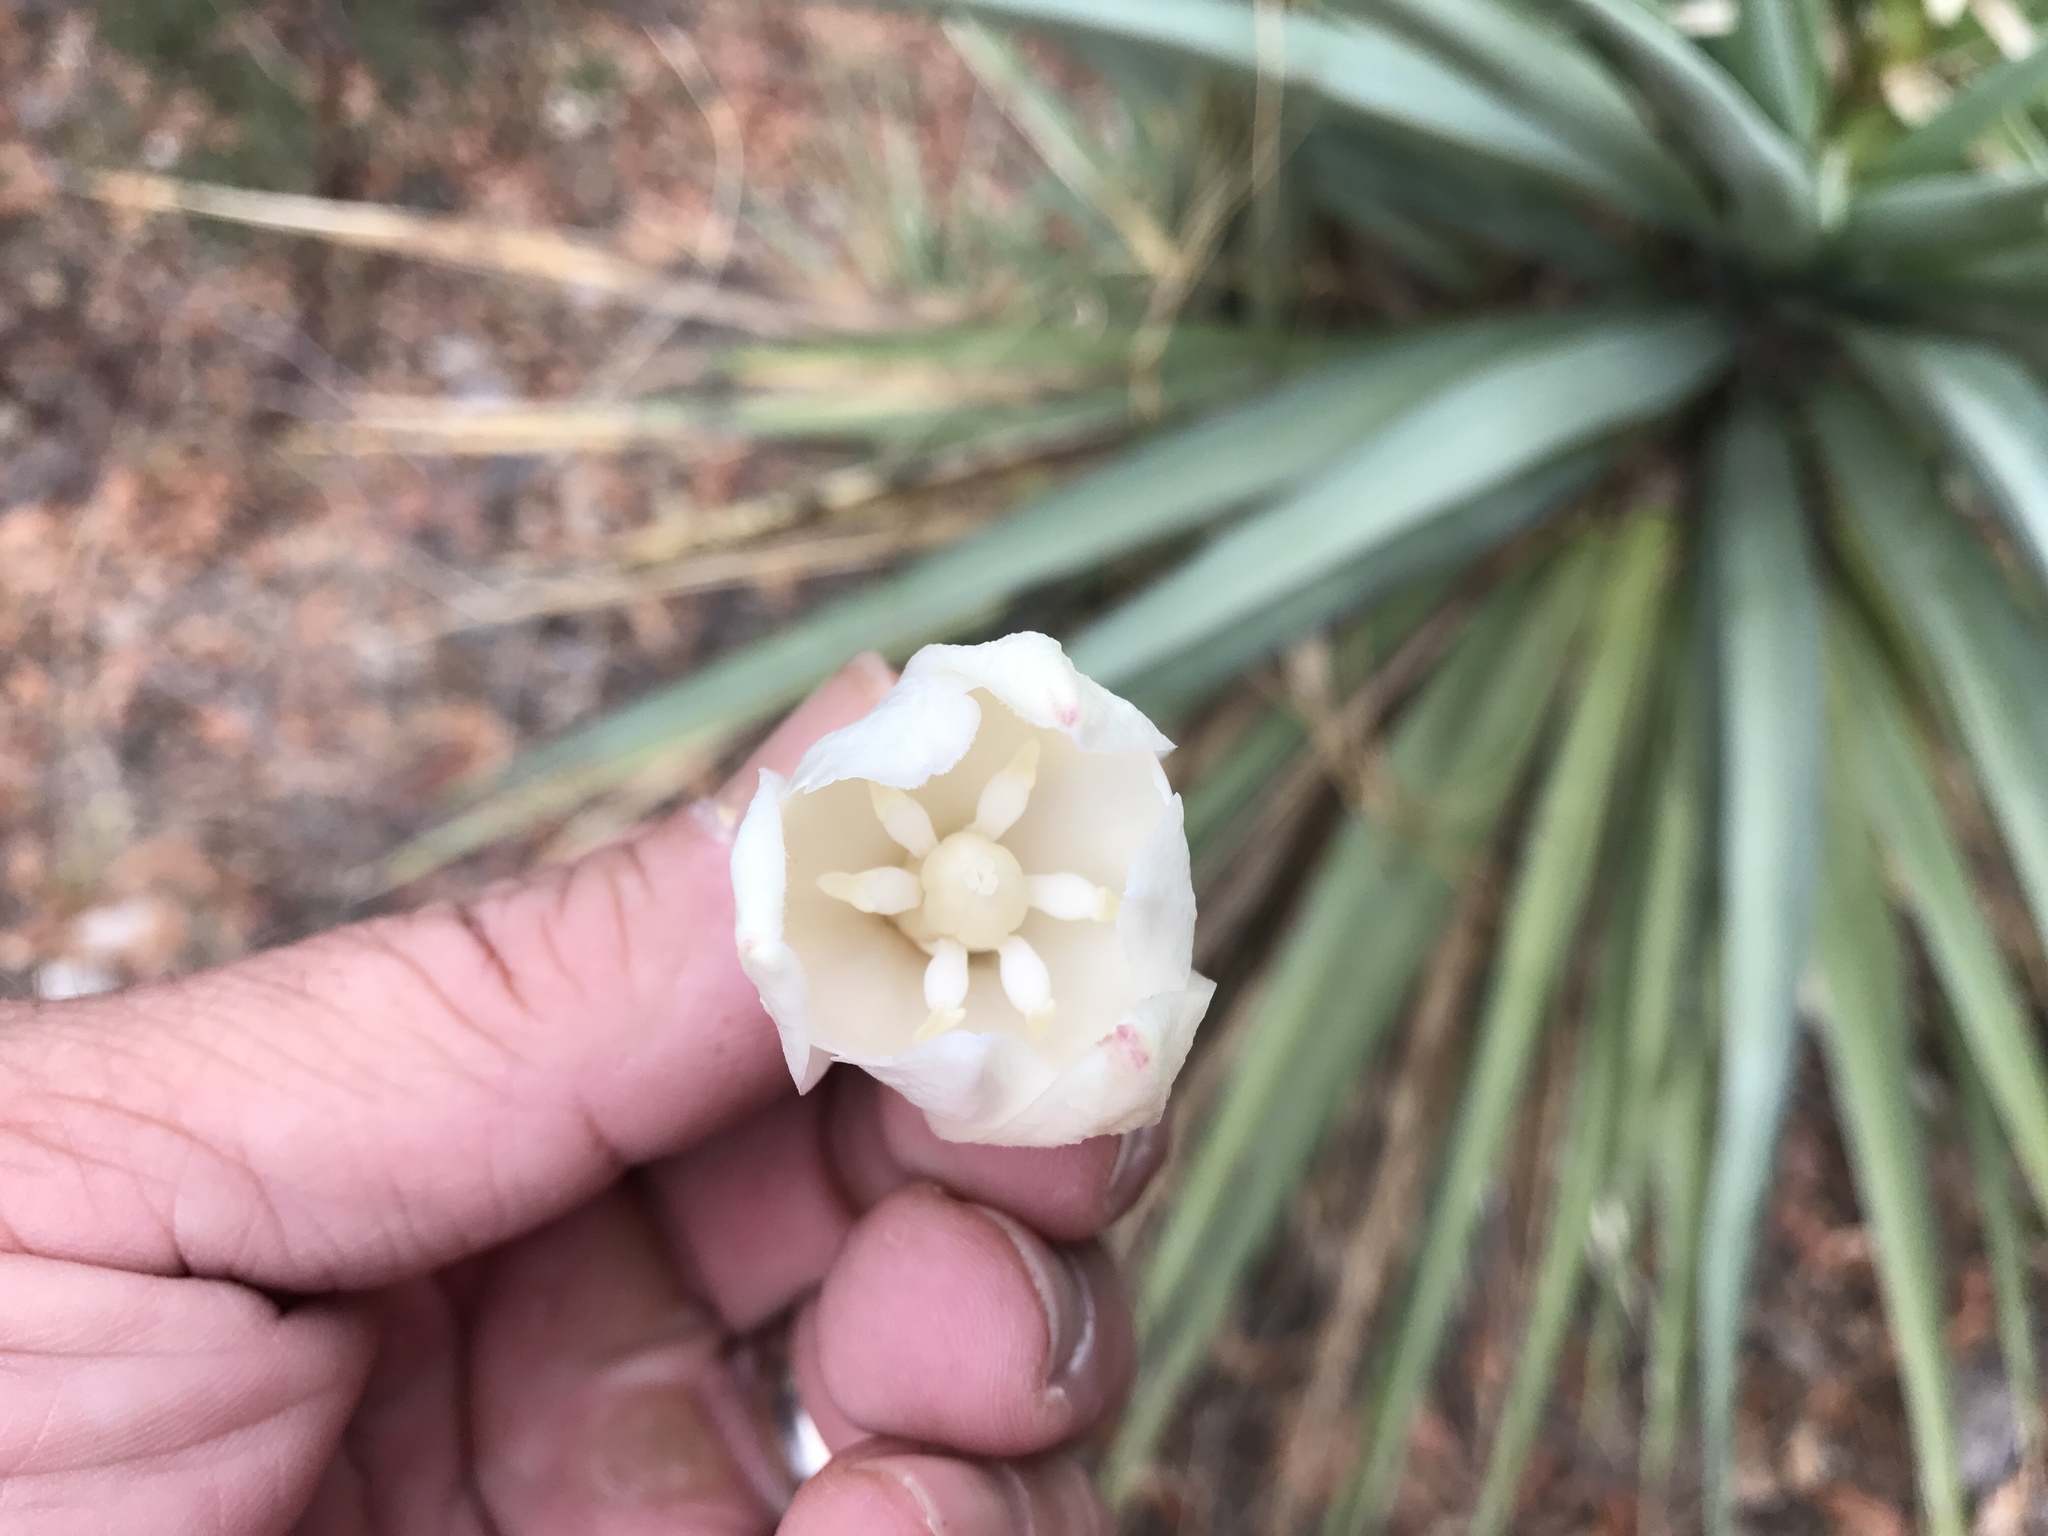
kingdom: Plantae
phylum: Tracheophyta
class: Liliopsida
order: Asparagales
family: Asparagaceae
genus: Yucca
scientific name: Yucca schottii
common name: Hoary yucca
